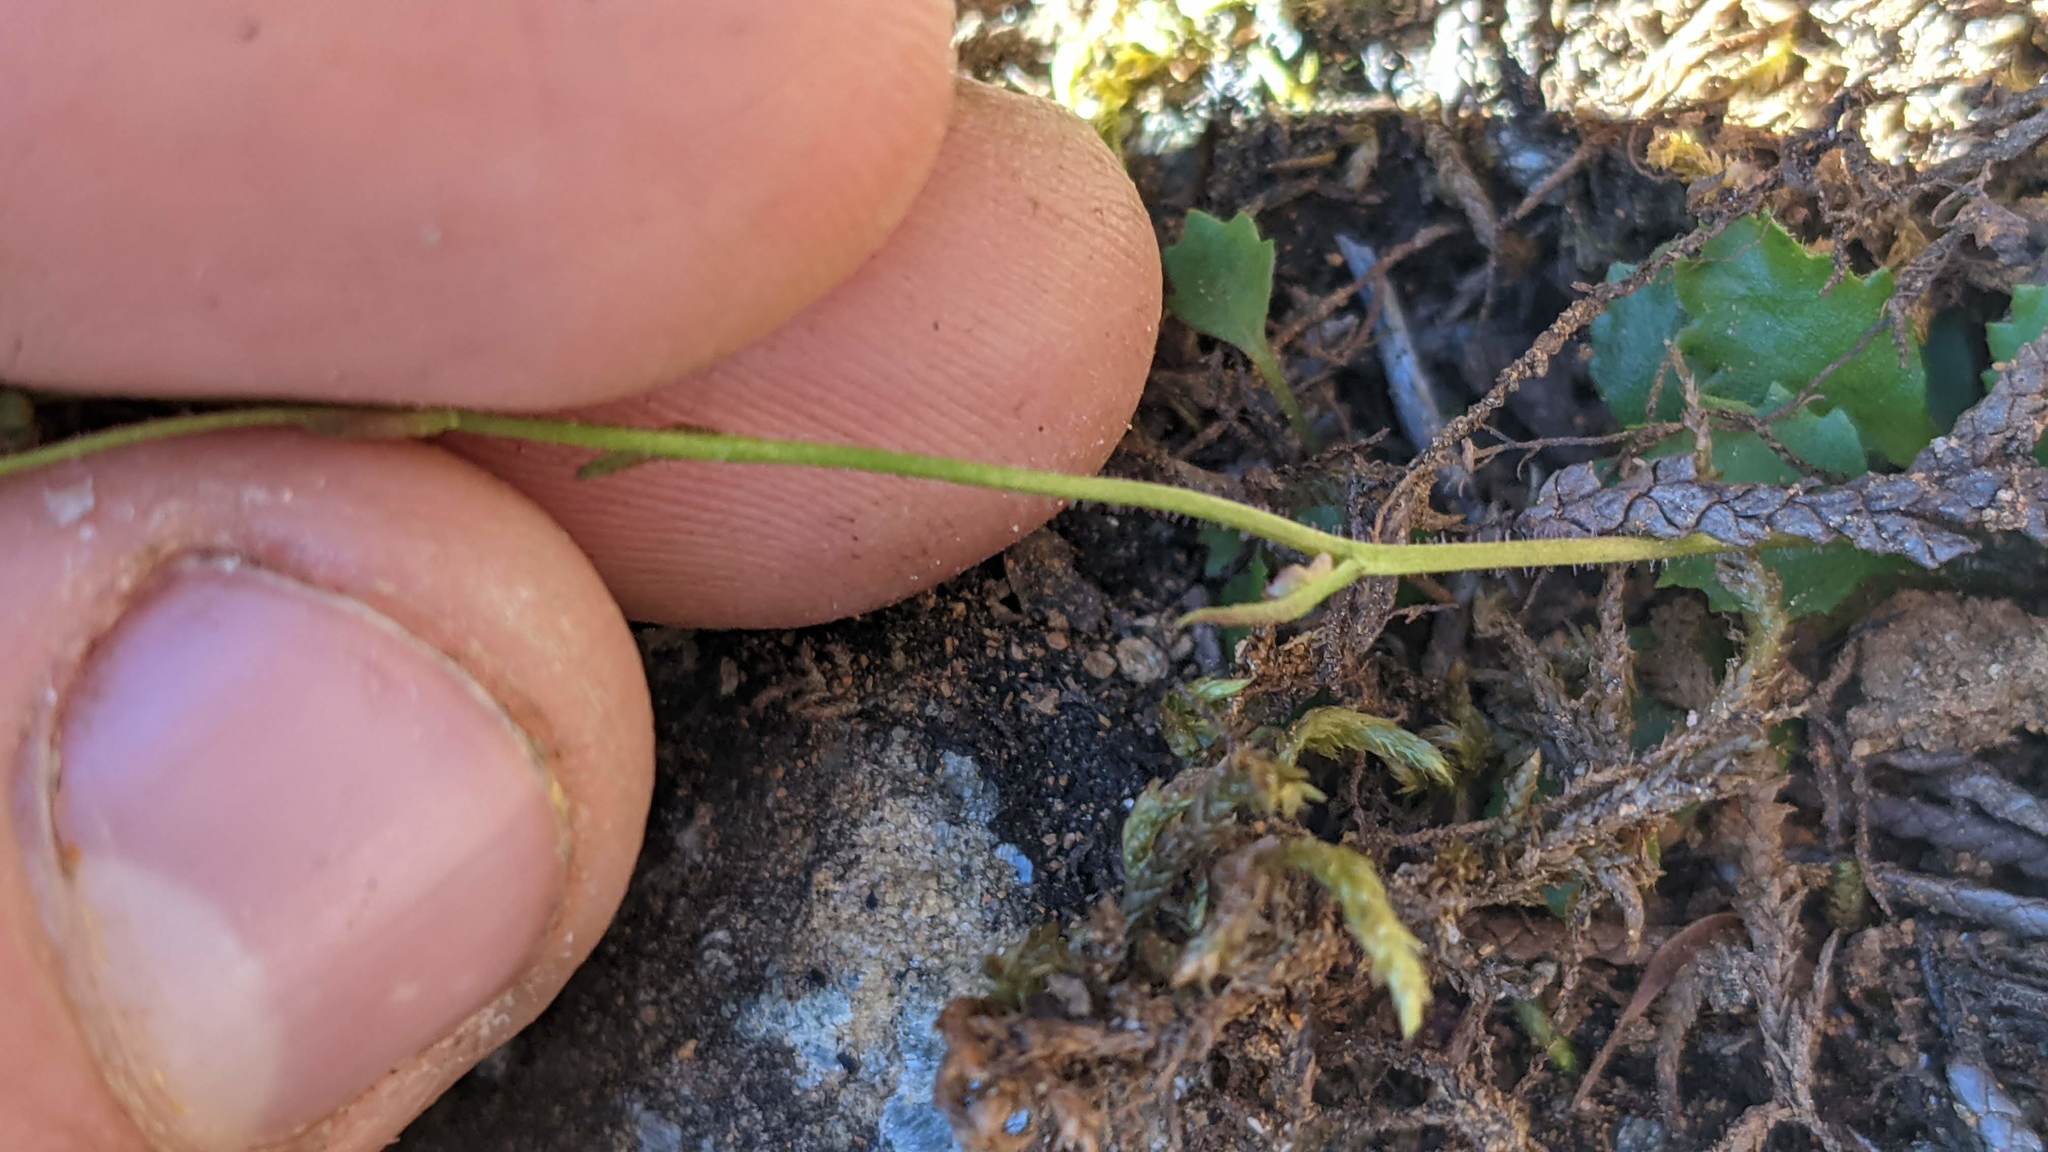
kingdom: Plantae
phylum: Tracheophyta
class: Magnoliopsida
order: Saxifragales
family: Saxifragaceae
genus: Micranthes
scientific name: Micranthes howellii
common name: Howell's saxifrage
